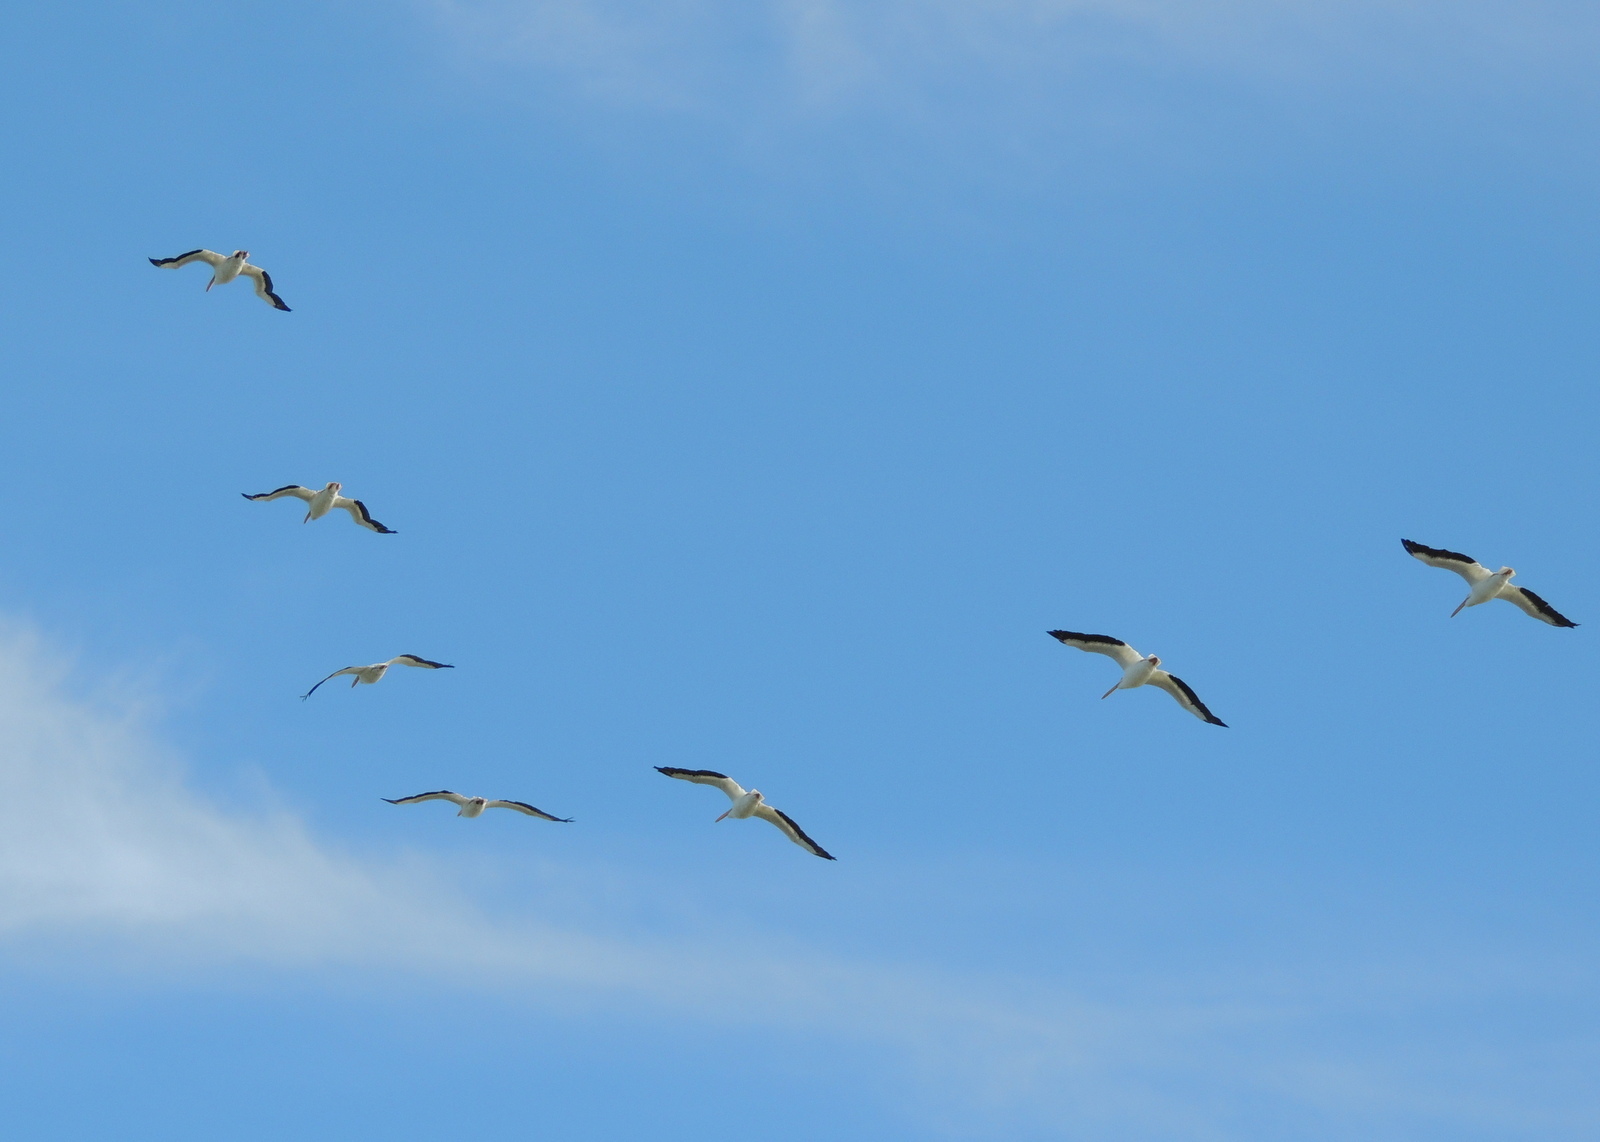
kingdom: Animalia
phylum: Chordata
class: Aves
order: Pelecaniformes
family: Pelecanidae
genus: Pelecanus
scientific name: Pelecanus erythrorhynchos
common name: American white pelican
